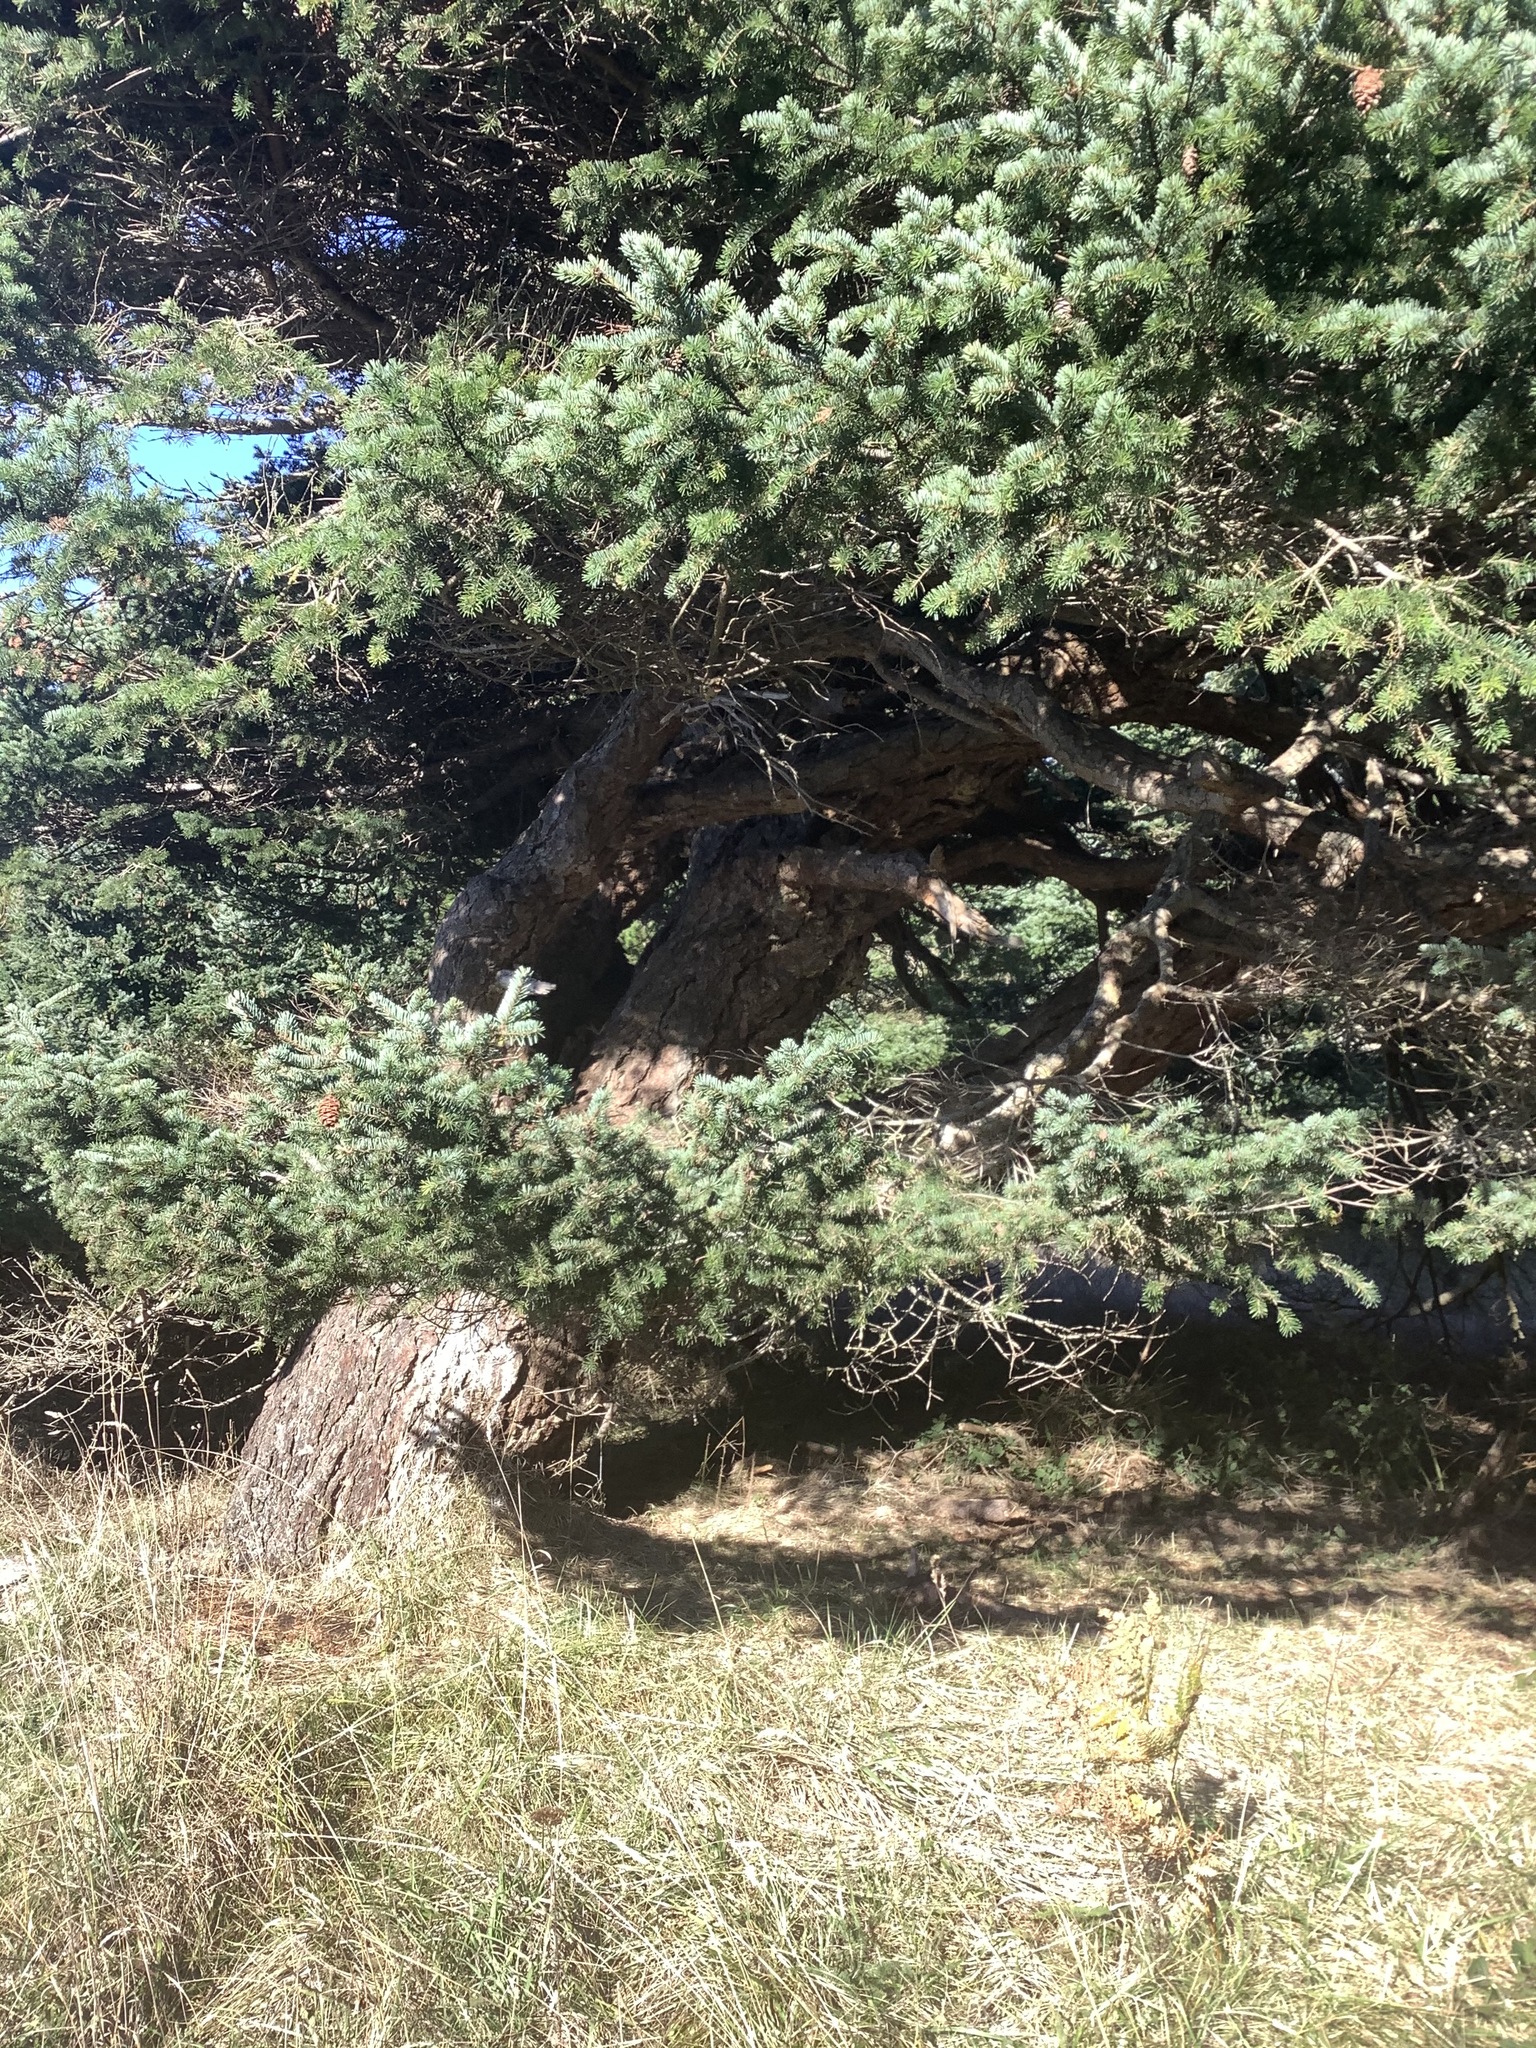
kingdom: Plantae
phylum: Tracheophyta
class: Pinopsida
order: Pinales
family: Pinaceae
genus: Pseudotsuga
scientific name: Pseudotsuga menziesii
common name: Douglas fir
